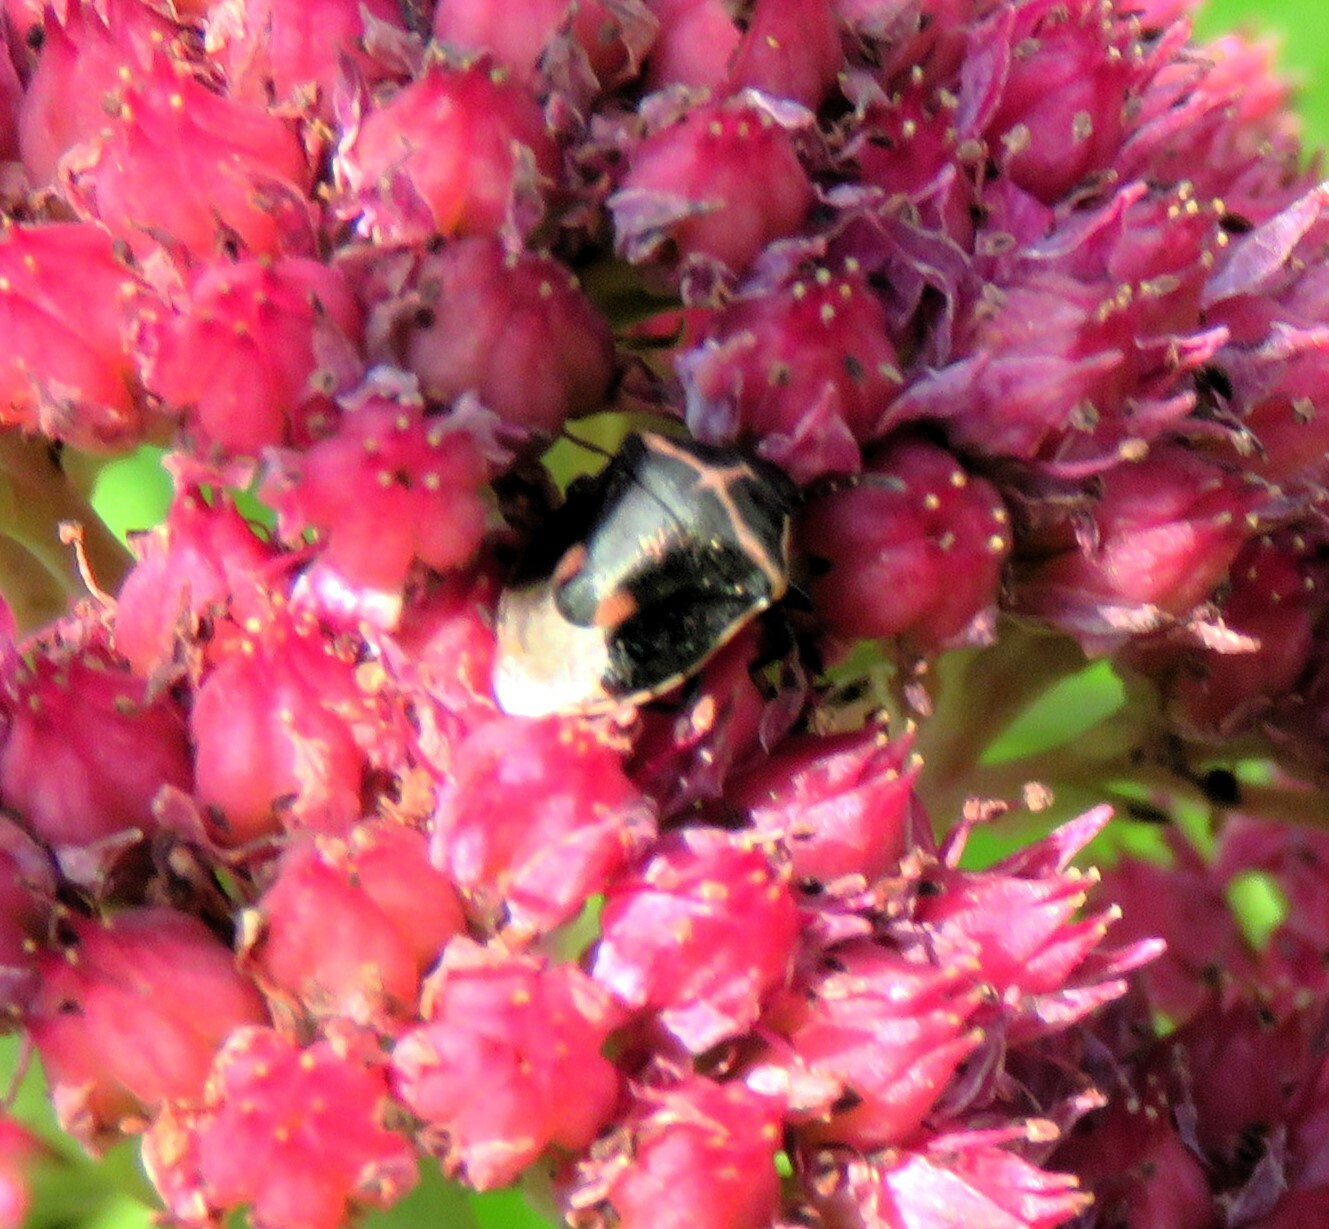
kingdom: Animalia
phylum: Arthropoda
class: Insecta
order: Hemiptera
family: Pentatomidae
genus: Cosmopepla
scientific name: Cosmopepla lintneriana
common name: Twice-stabbed stink bug
